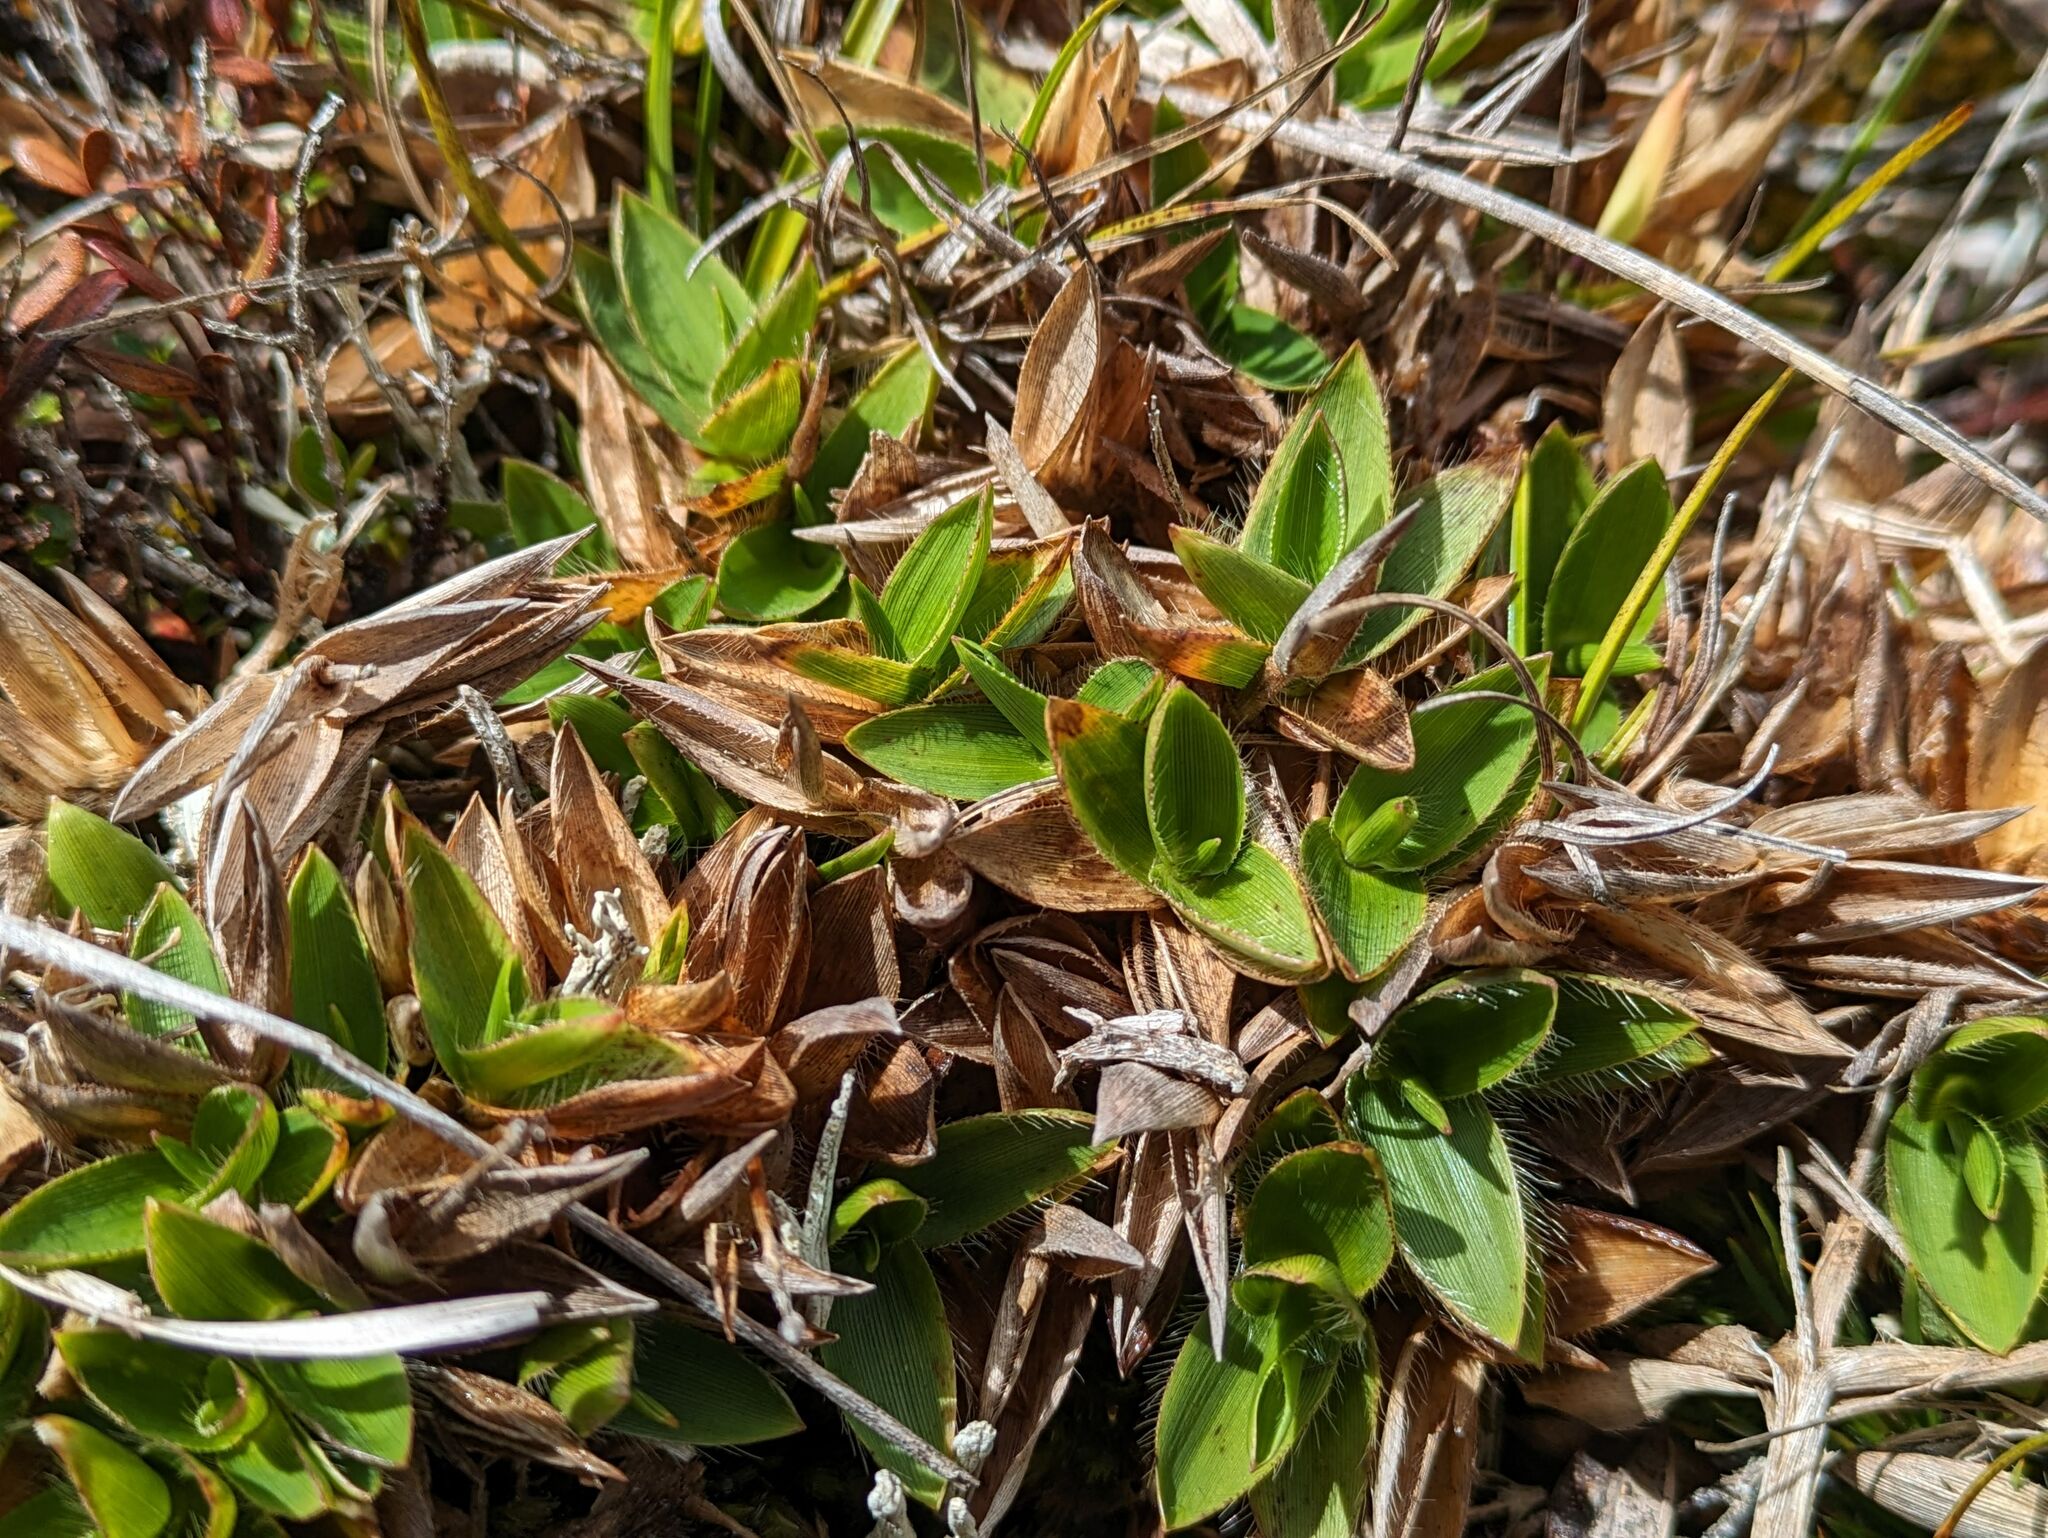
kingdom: Plantae
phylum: Tracheophyta
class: Liliopsida
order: Poales
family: Poaceae
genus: Dichanthelium
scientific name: Dichanthelium isachnoides
